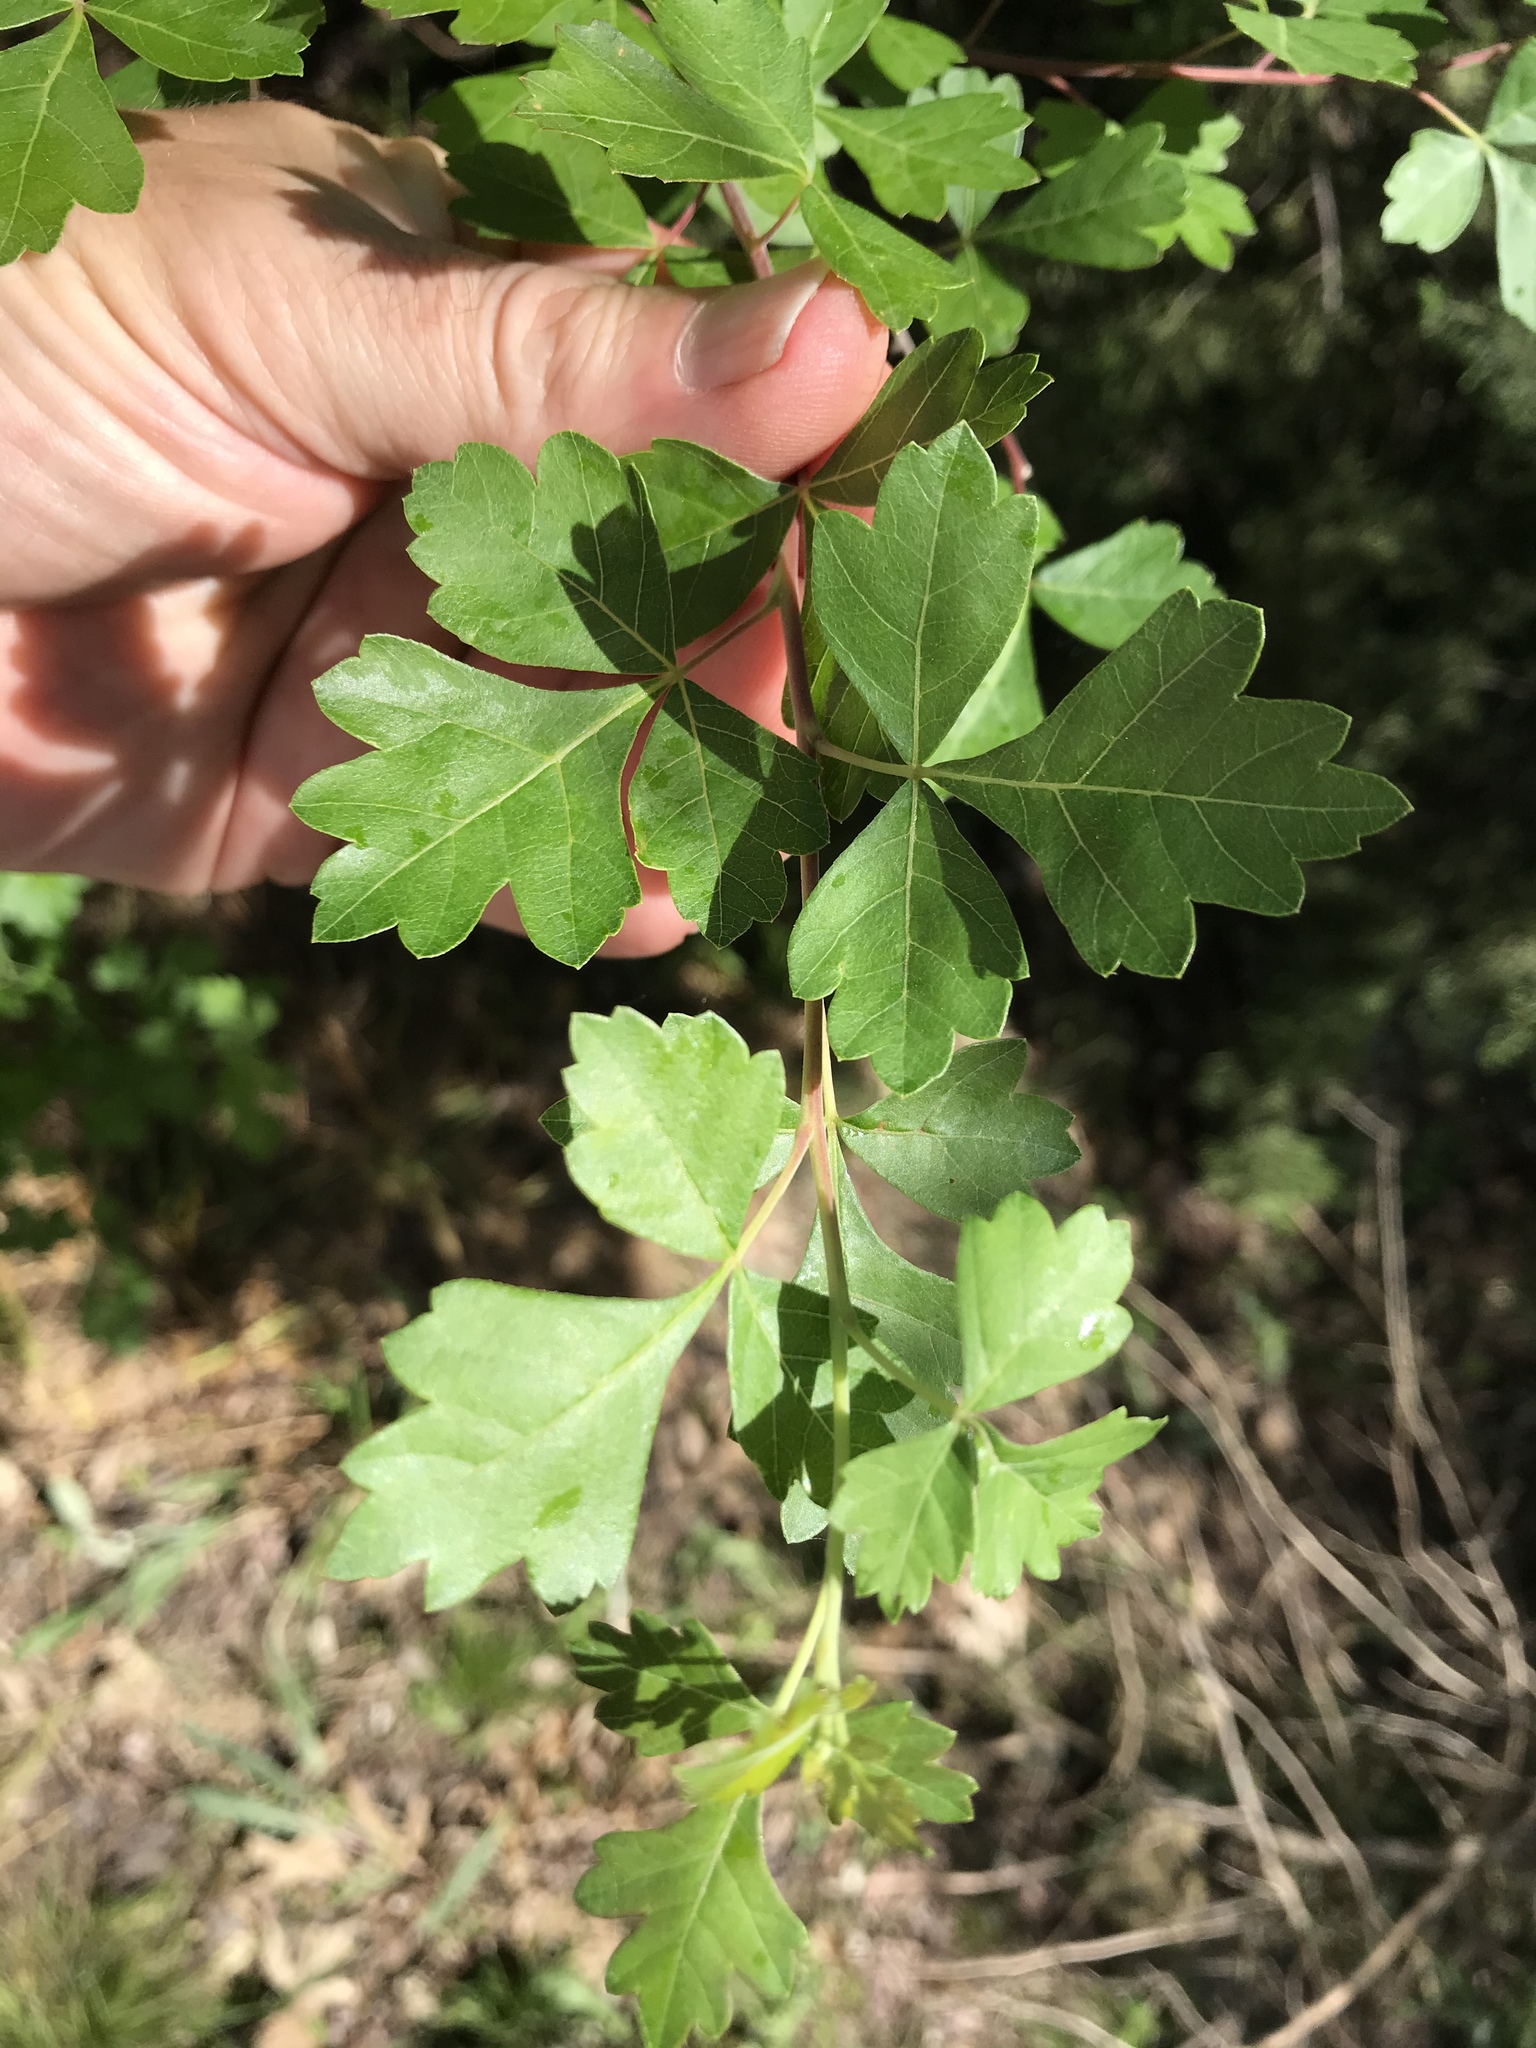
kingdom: Plantae
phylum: Tracheophyta
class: Magnoliopsida
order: Sapindales
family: Anacardiaceae
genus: Rhus
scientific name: Rhus aromatica
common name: Aromatic sumac
